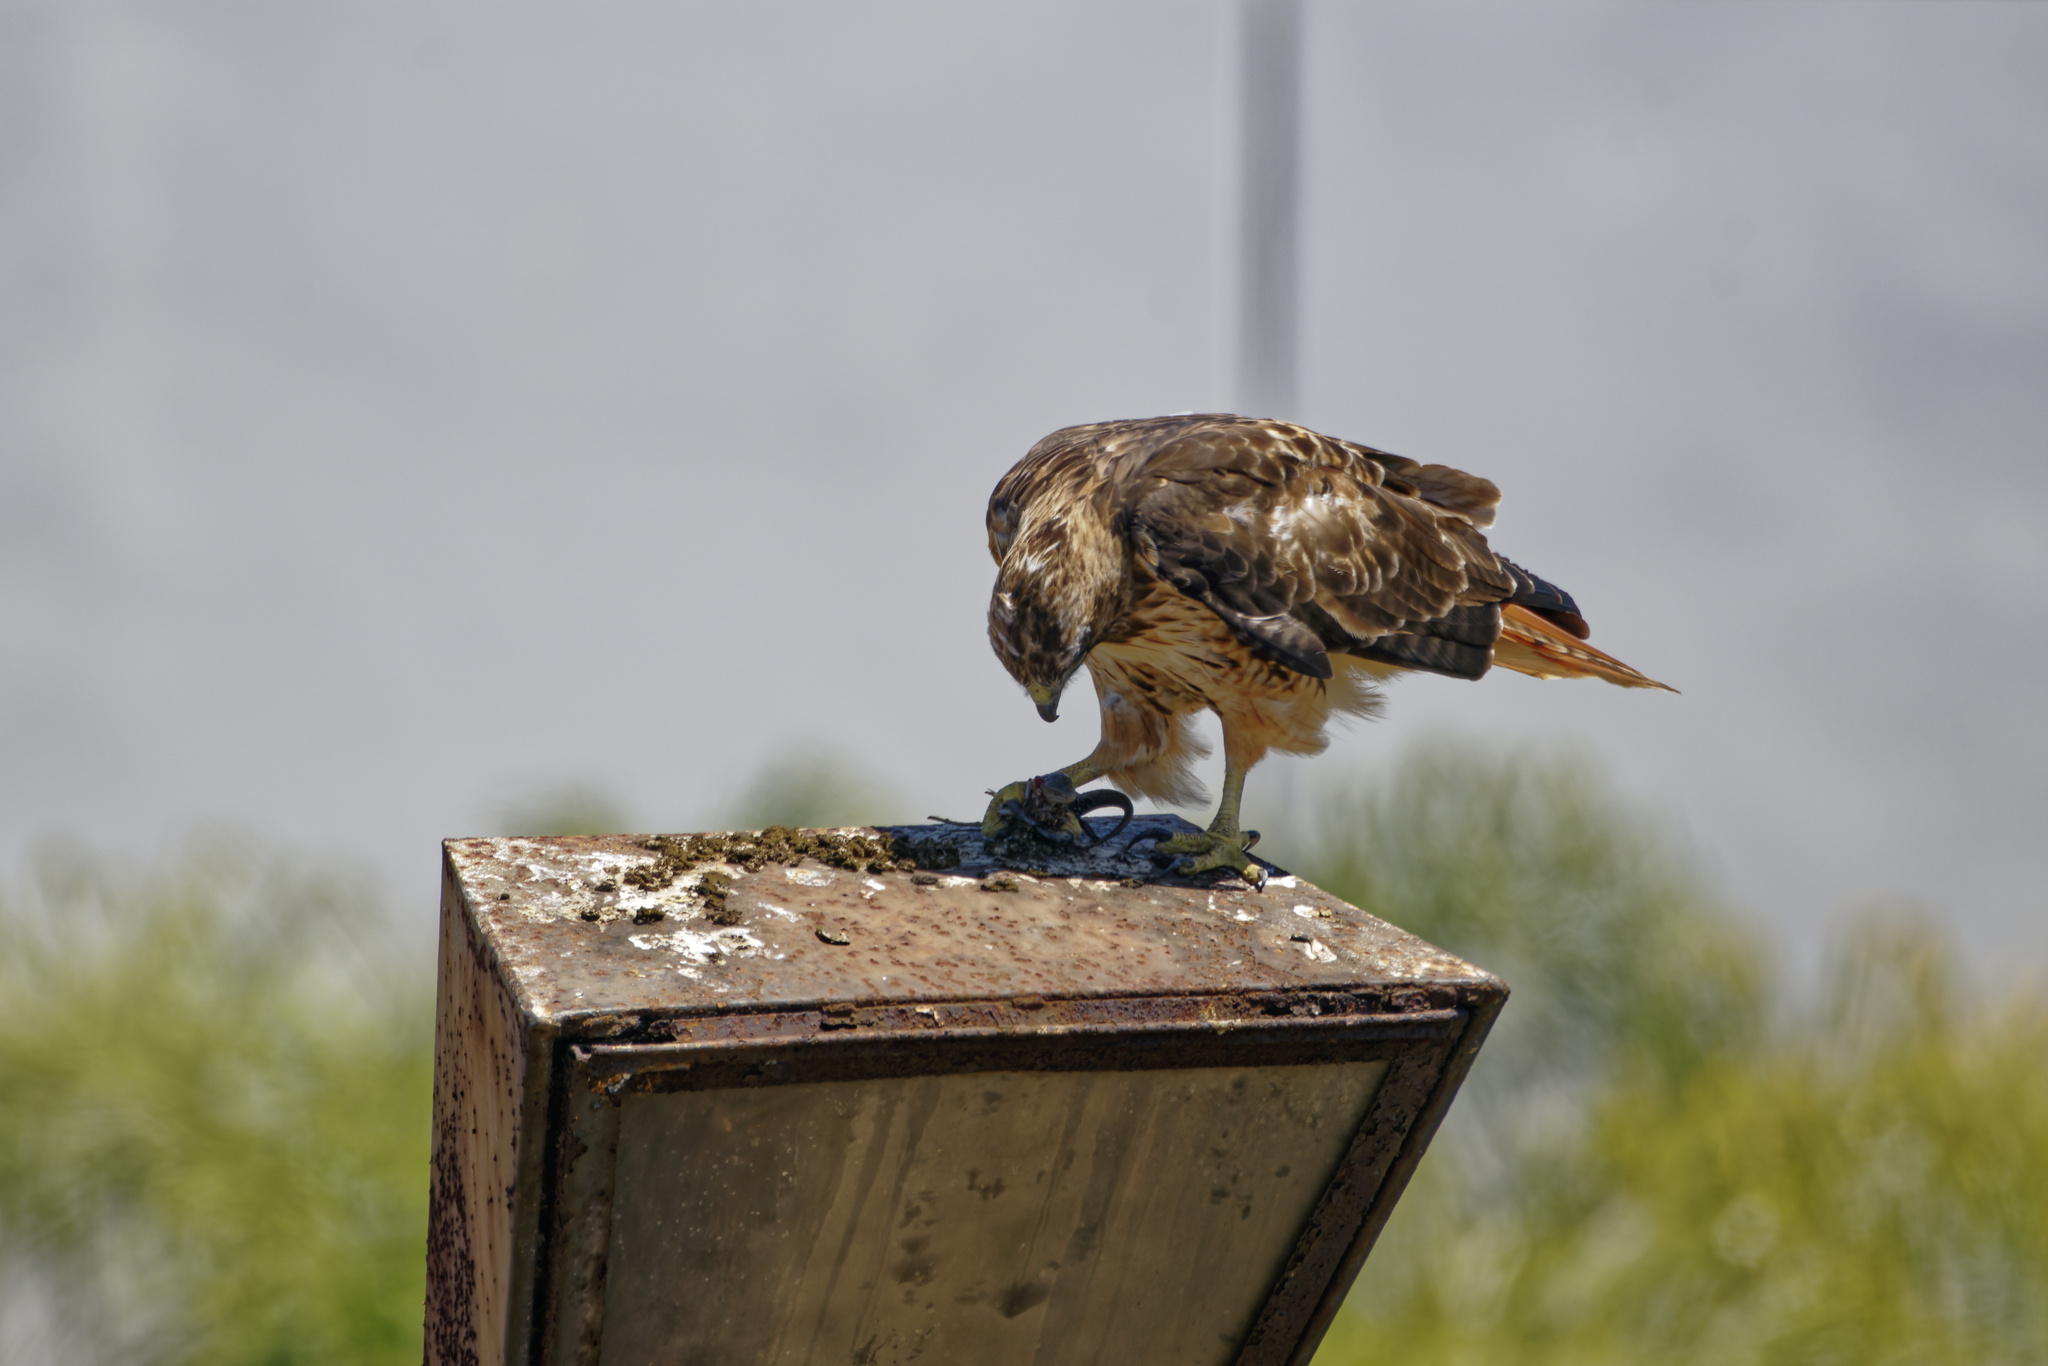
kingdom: Animalia
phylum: Chordata
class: Aves
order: Accipitriformes
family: Accipitridae
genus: Buteo
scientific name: Buteo jamaicensis
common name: Red-tailed hawk
